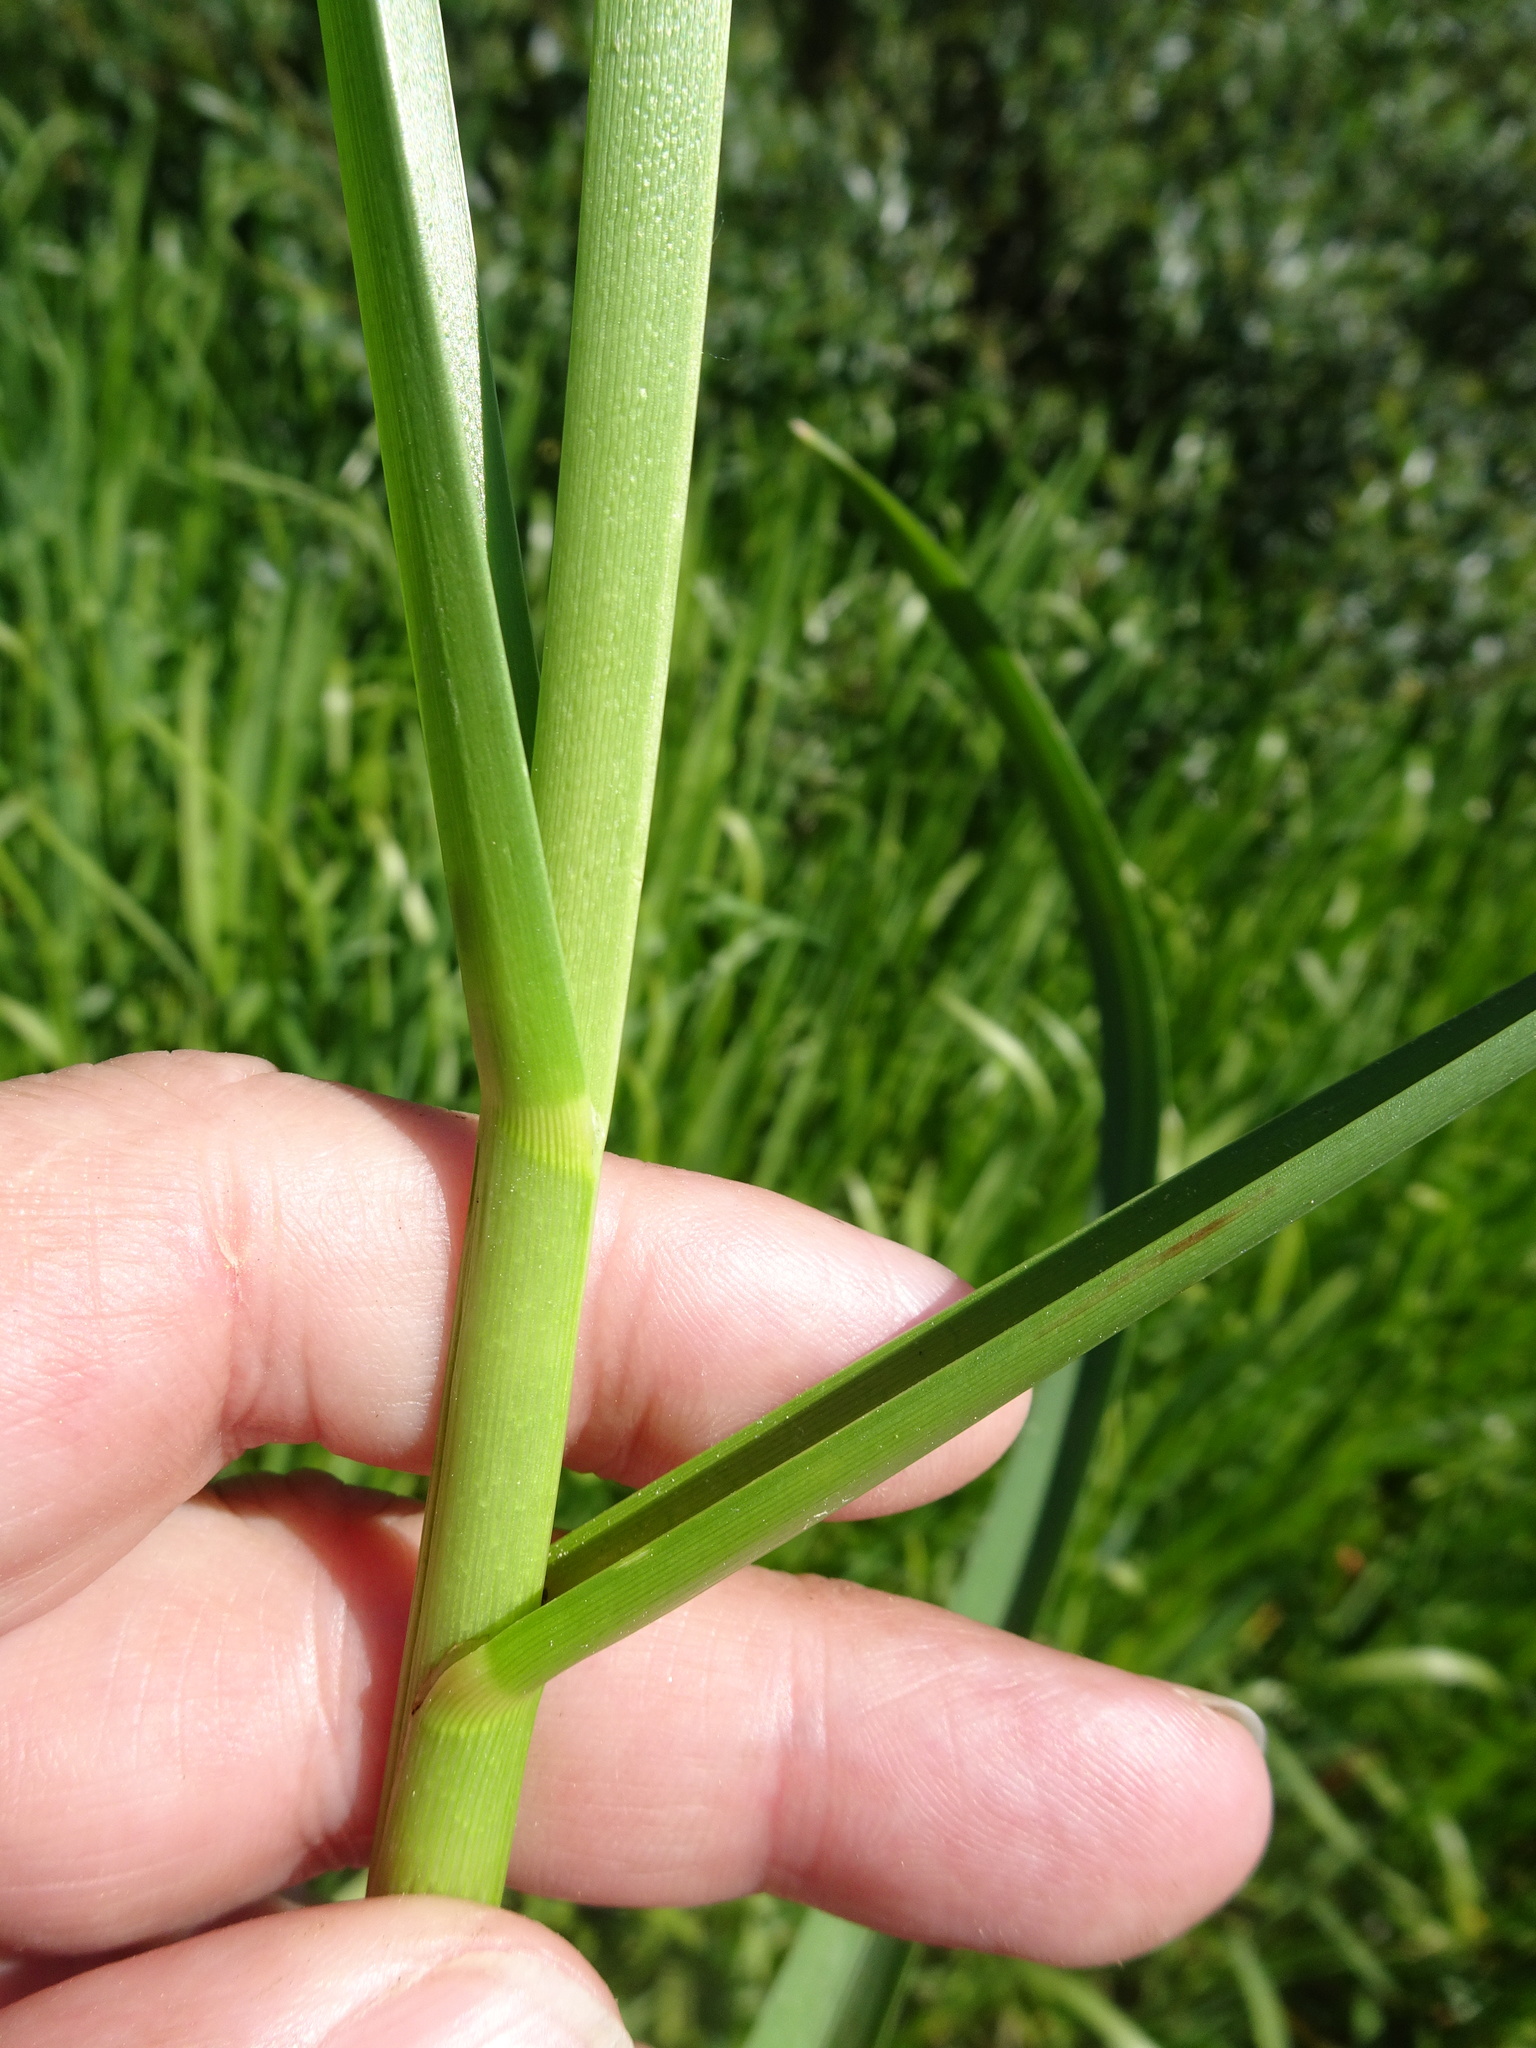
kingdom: Plantae
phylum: Tracheophyta
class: Liliopsida
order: Poales
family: Poaceae
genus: Glyceria
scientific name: Glyceria maxima
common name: Reed mannagrass
